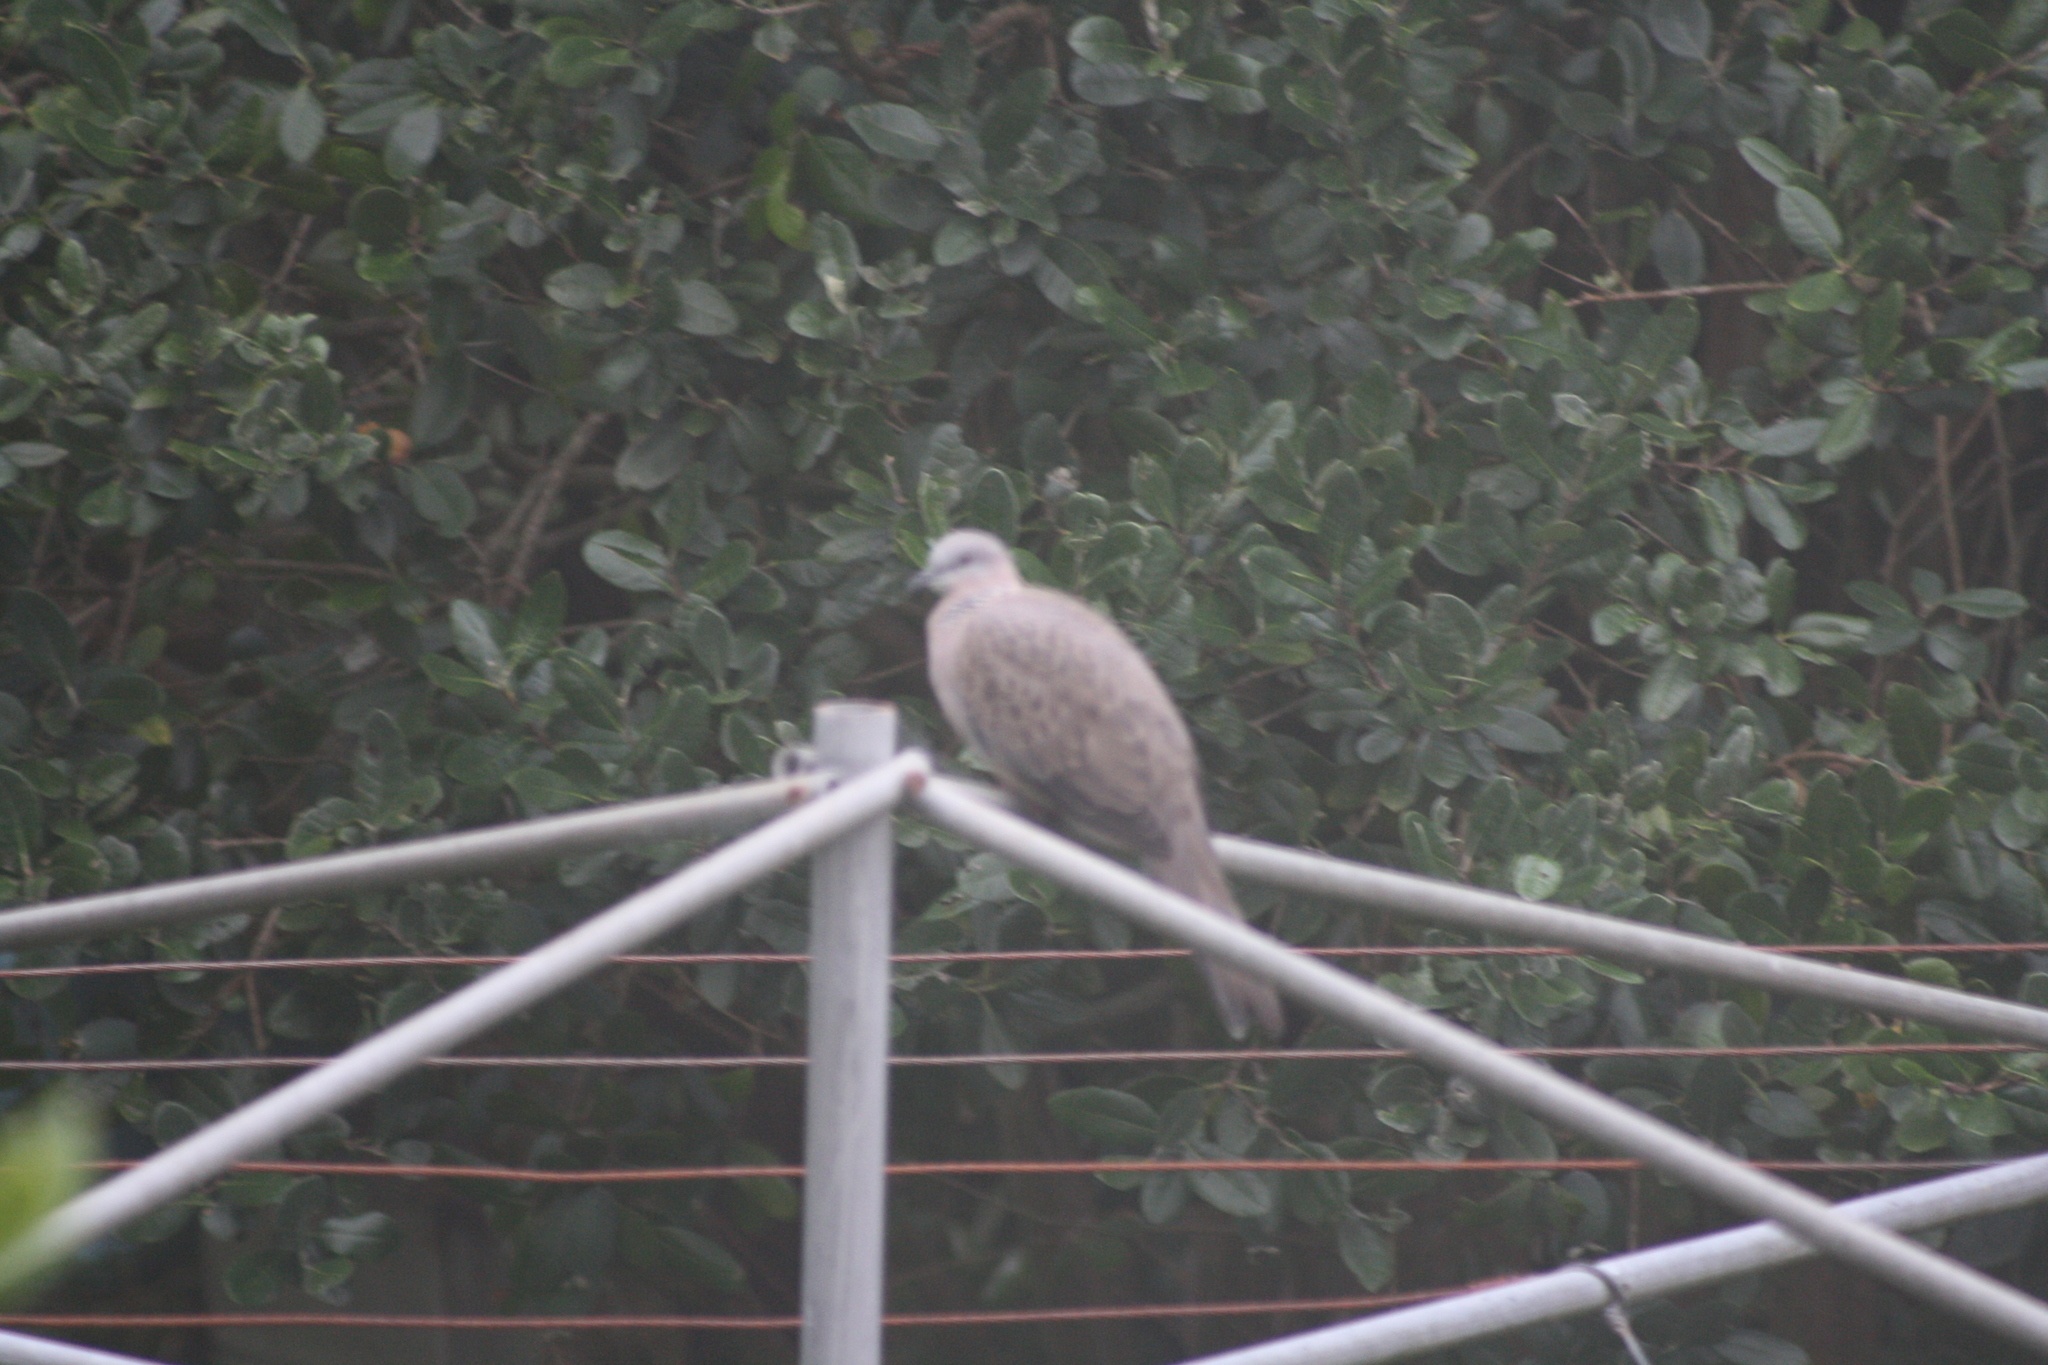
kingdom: Animalia
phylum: Chordata
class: Aves
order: Columbiformes
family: Columbidae
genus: Spilopelia
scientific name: Spilopelia chinensis
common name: Spotted dove
